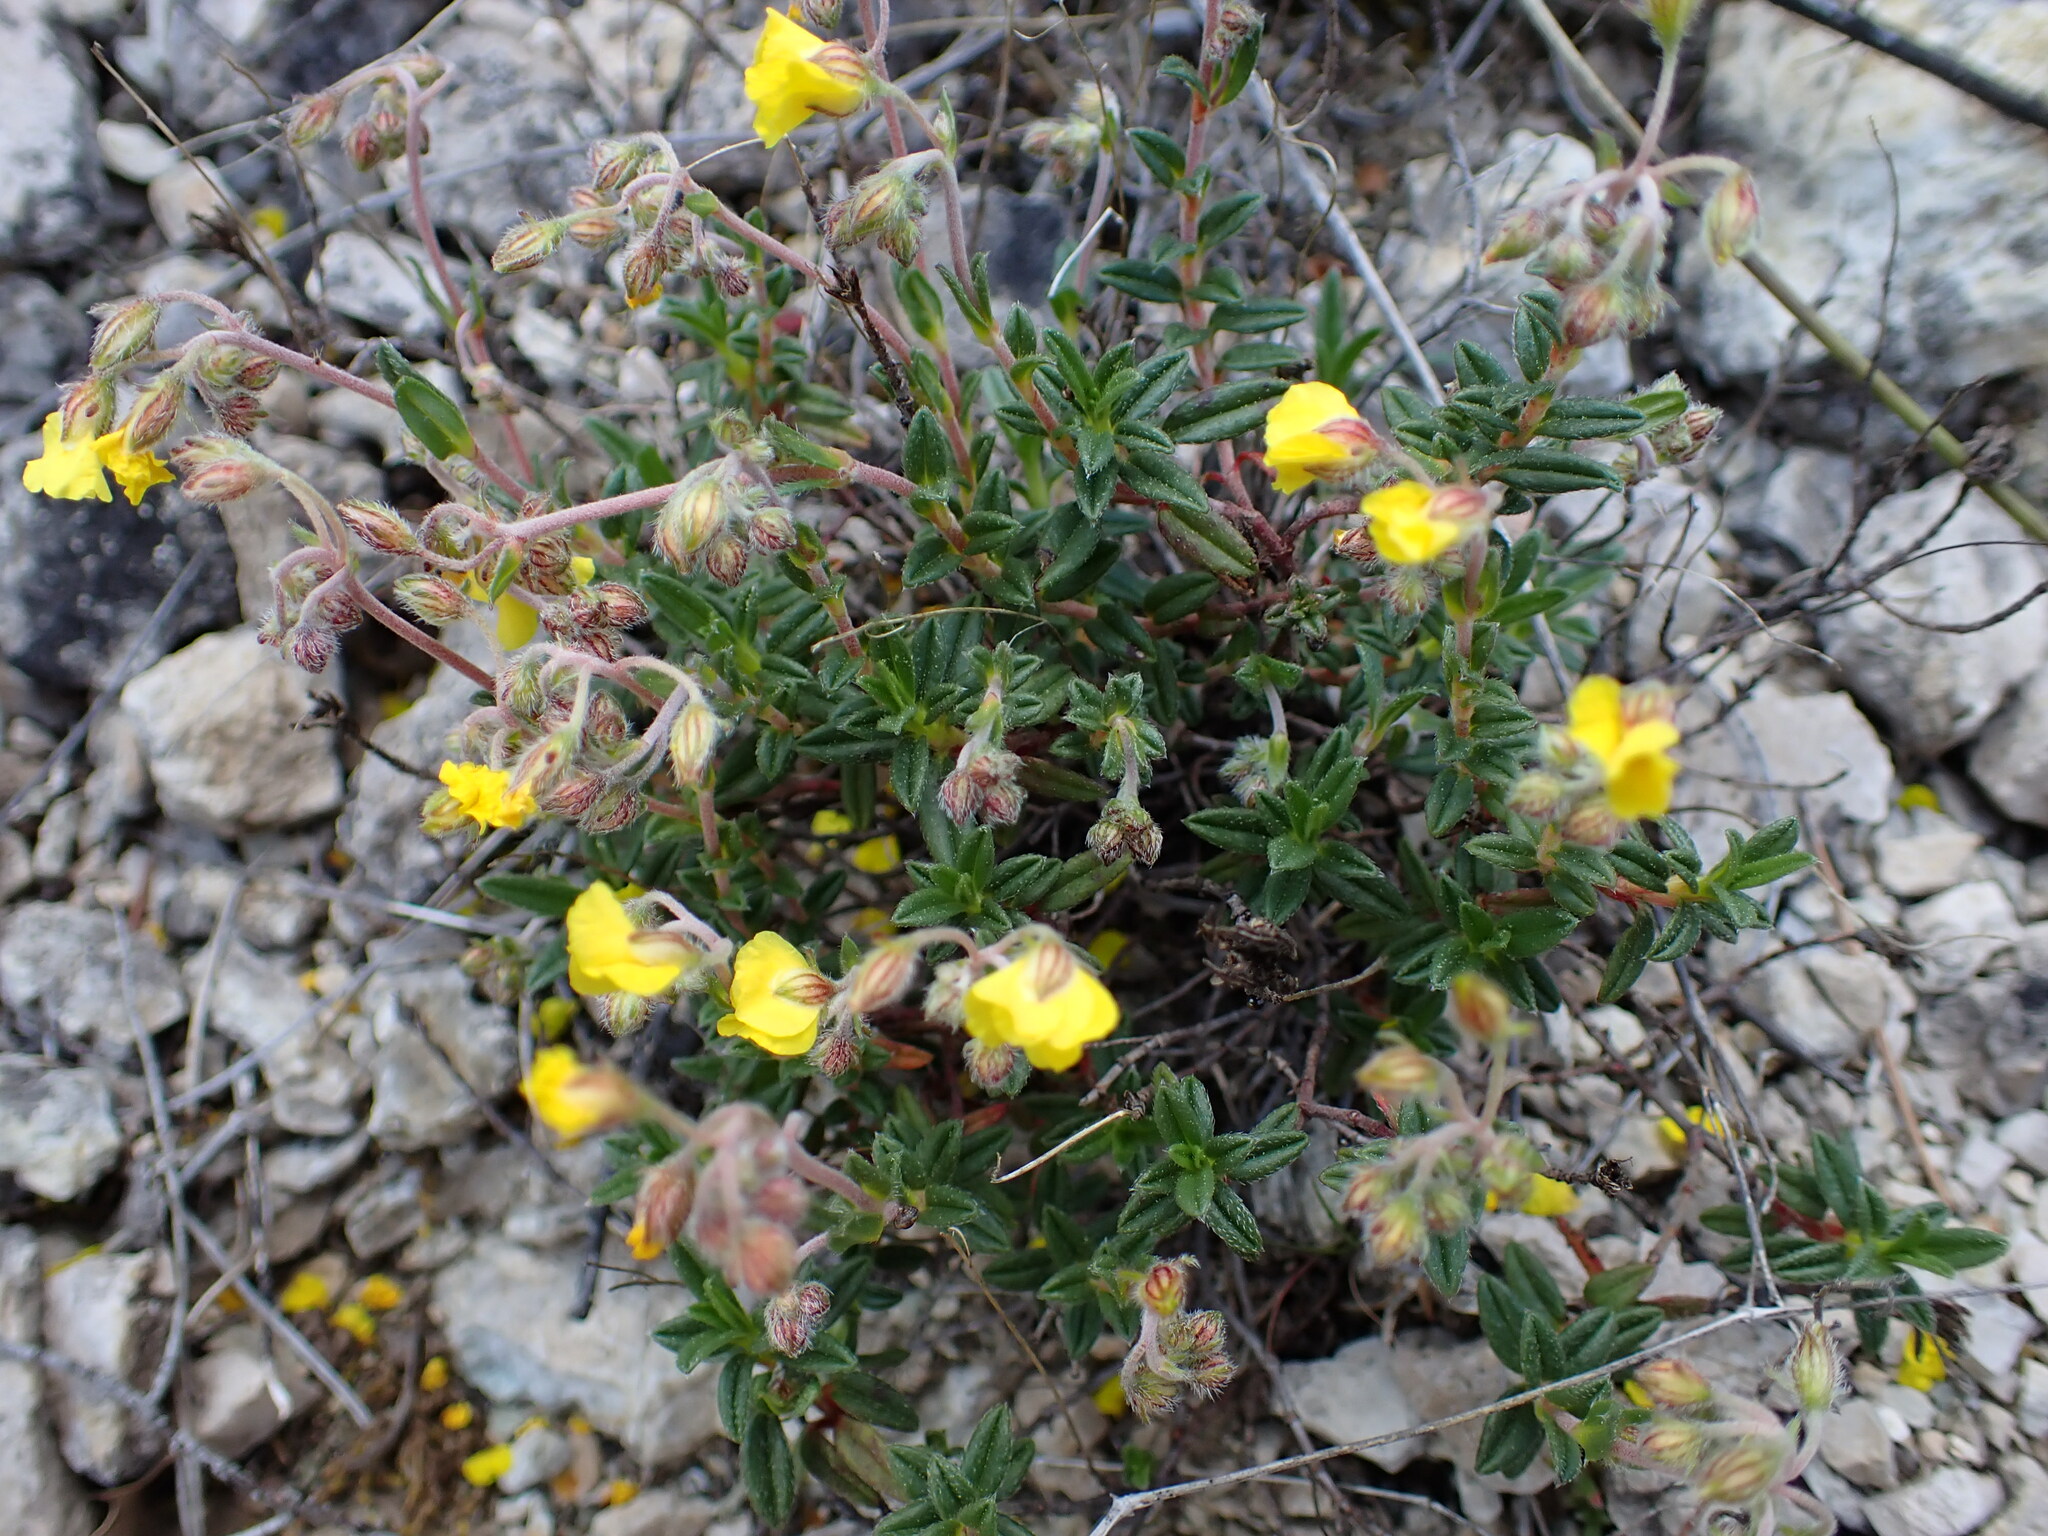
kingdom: Plantae
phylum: Tracheophyta
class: Magnoliopsida
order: Malvales
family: Cistaceae
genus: Helianthemum
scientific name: Helianthemum oelandicum
